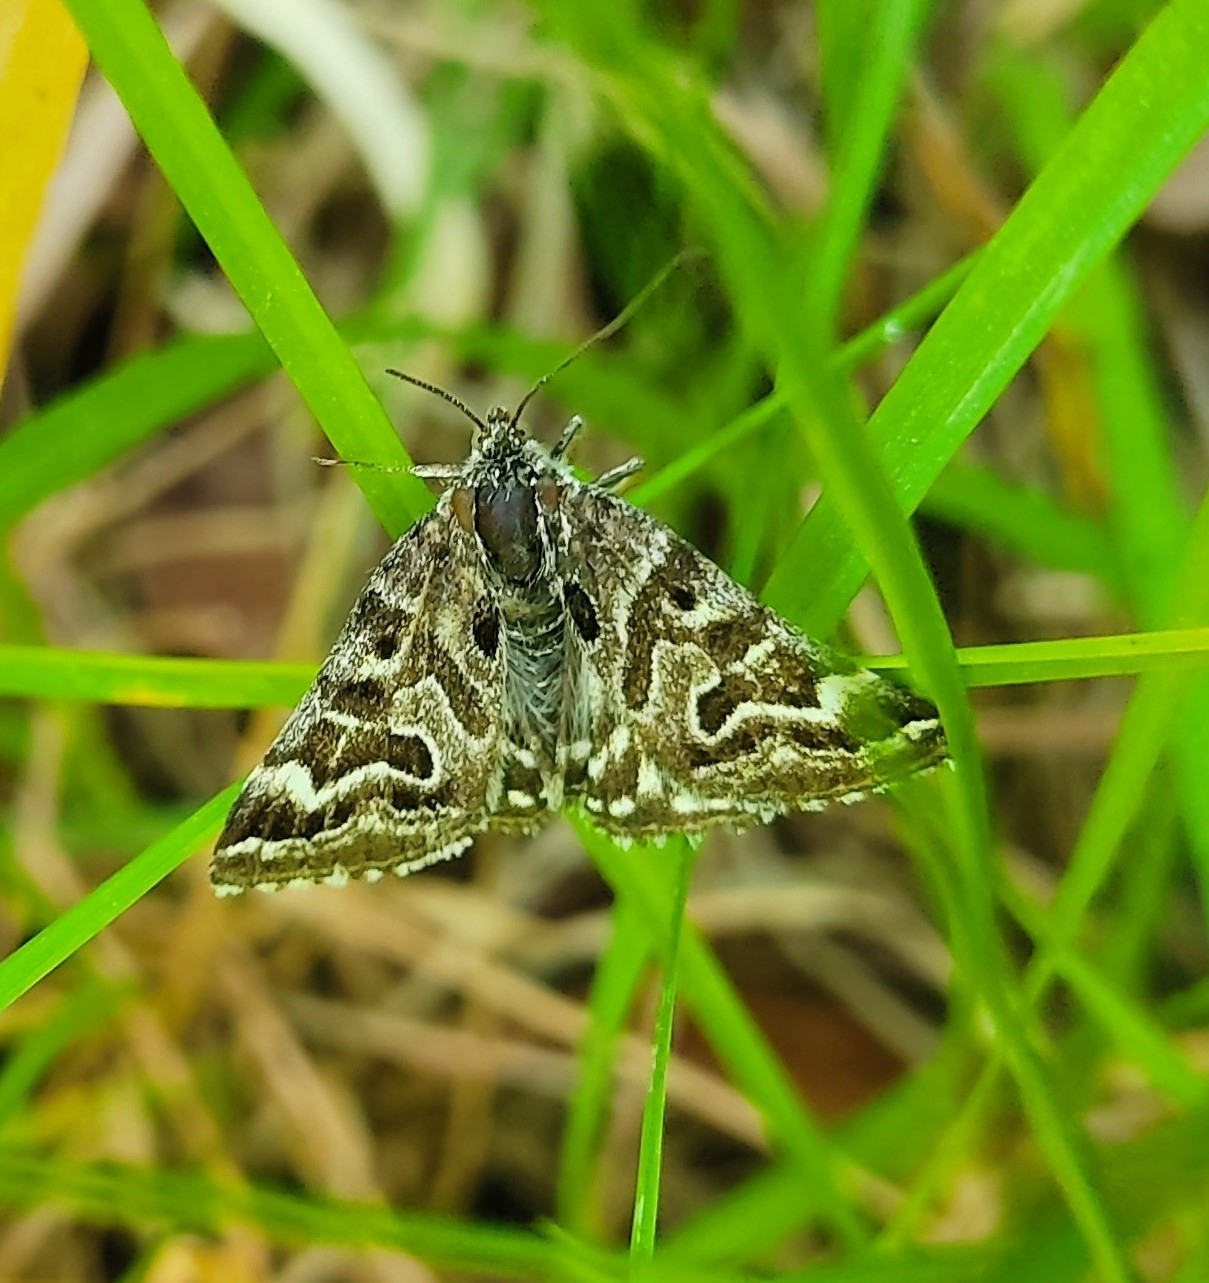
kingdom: Animalia
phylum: Arthropoda
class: Insecta
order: Lepidoptera
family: Erebidae
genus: Callistege
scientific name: Callistege mi
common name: Mother shipton
